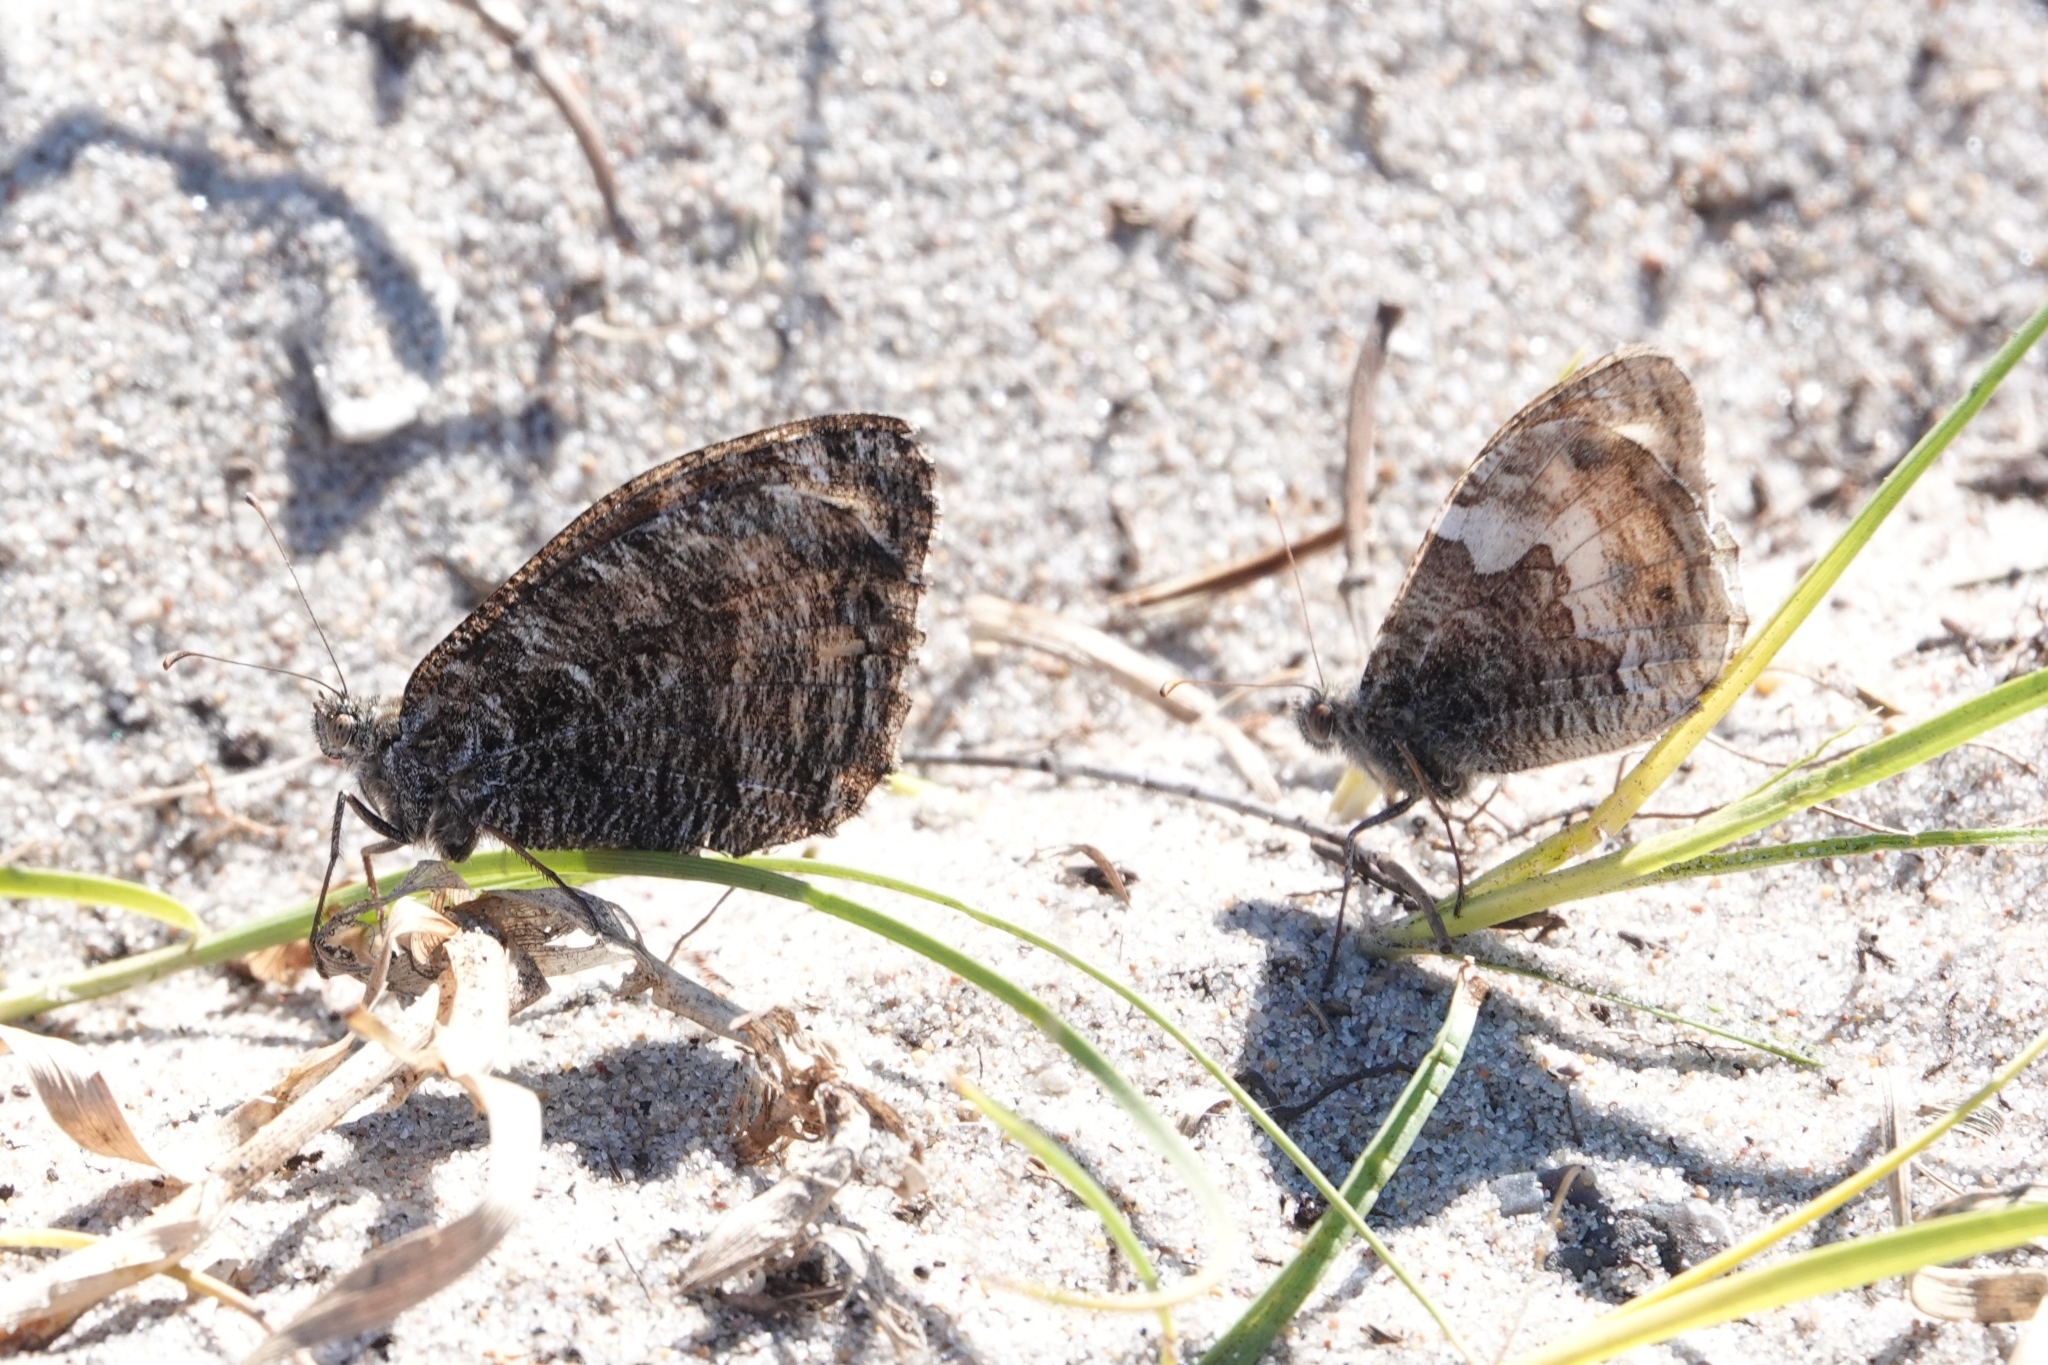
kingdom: Animalia
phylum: Arthropoda
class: Insecta
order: Lepidoptera
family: Nymphalidae
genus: Hipparchia
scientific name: Hipparchia semele
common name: Grayling
